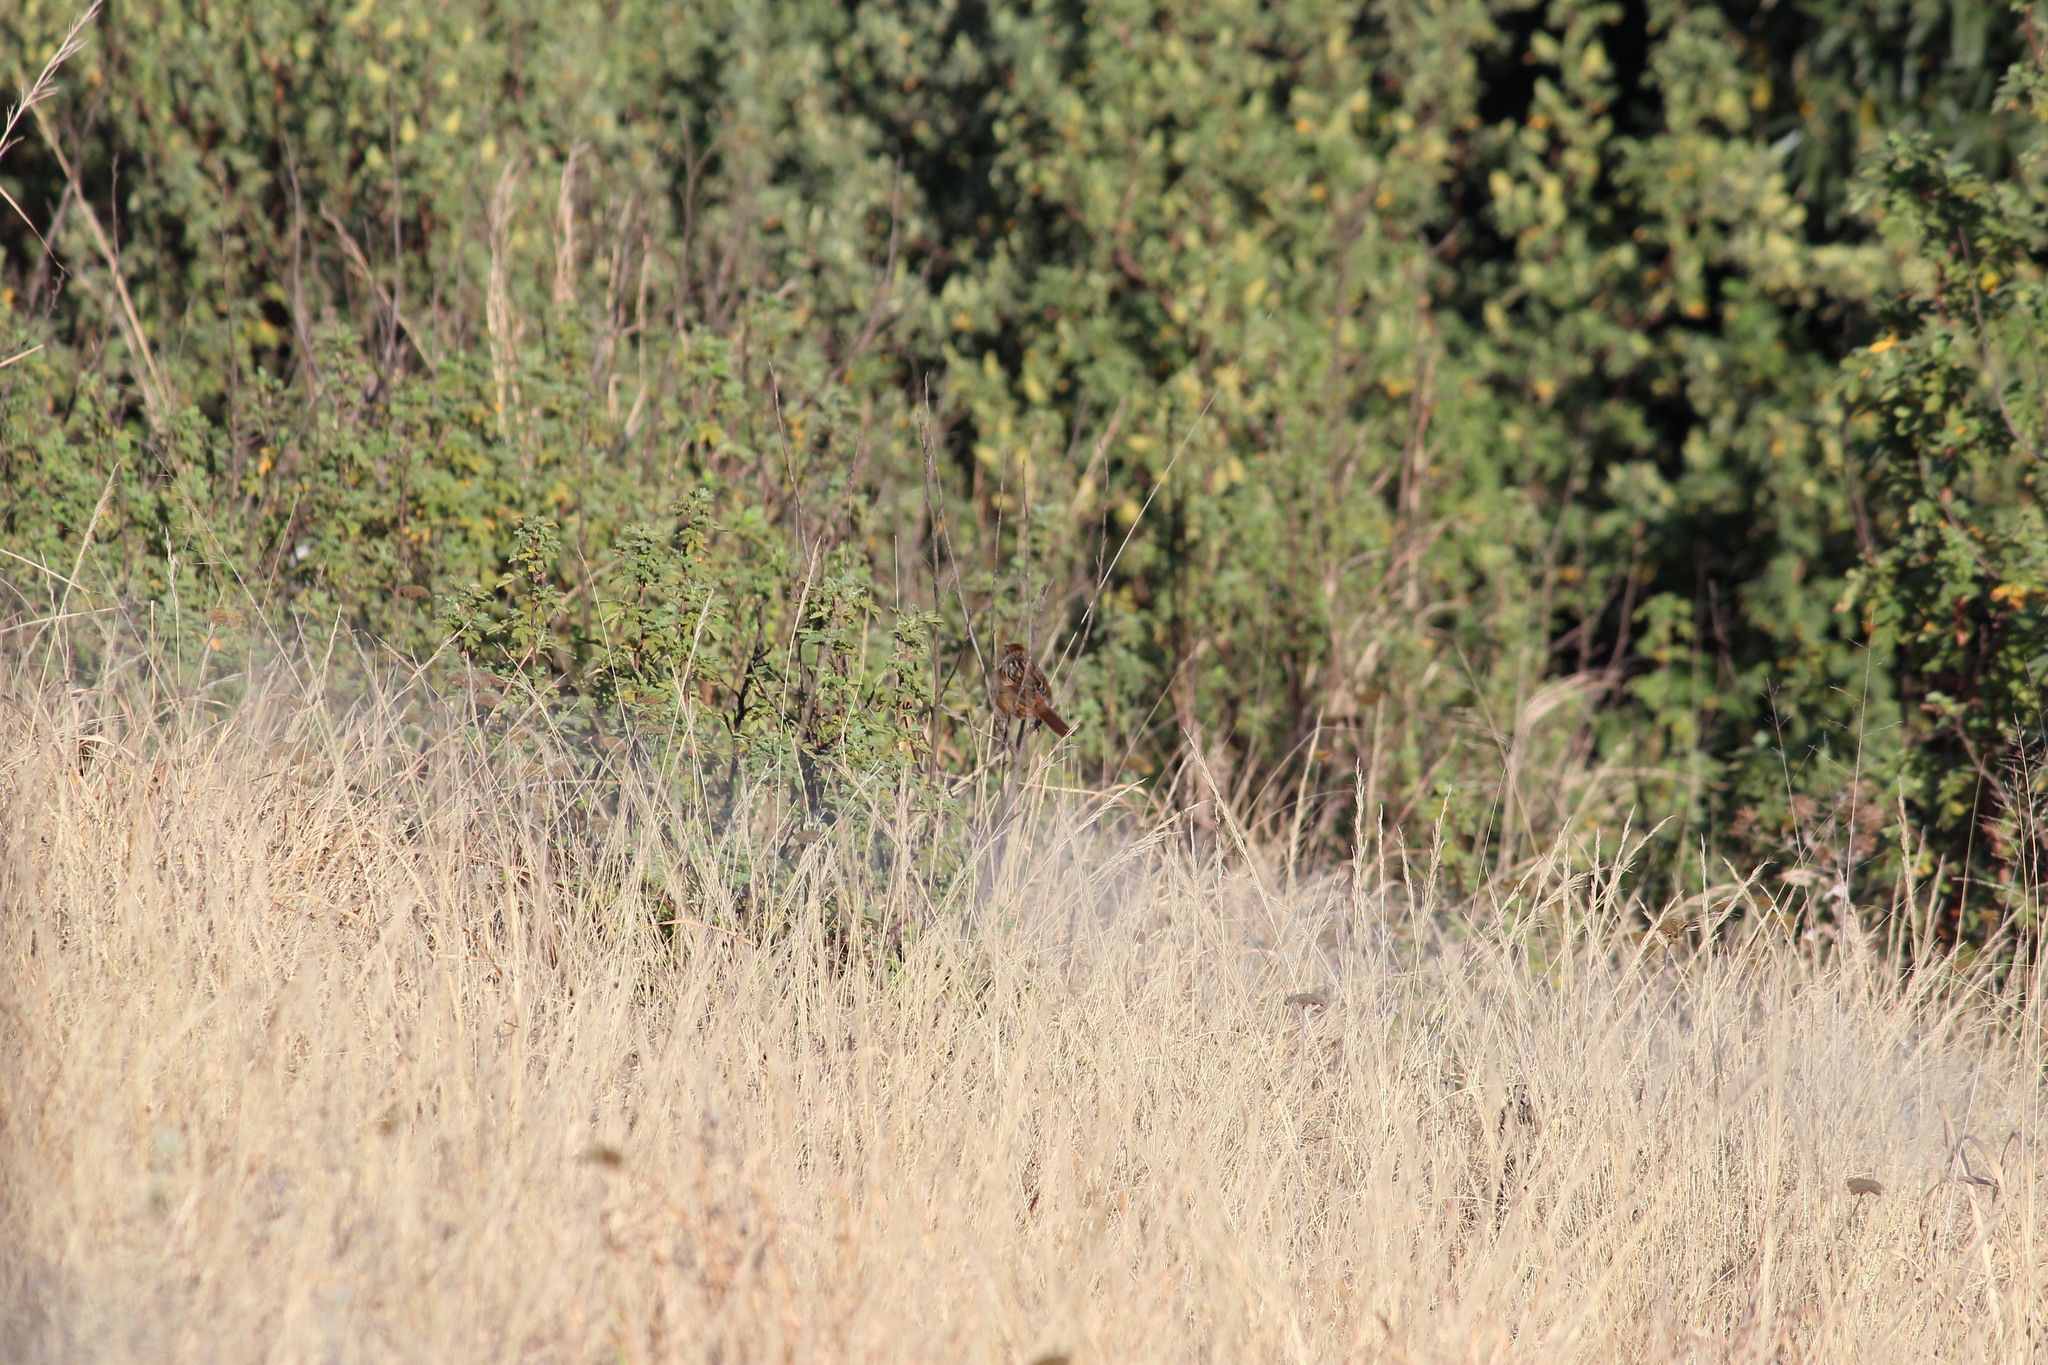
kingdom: Animalia
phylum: Chordata
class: Aves
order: Passeriformes
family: Macrosphenidae
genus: Sphenoeacus
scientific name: Sphenoeacus afer
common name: Cape grassbird
